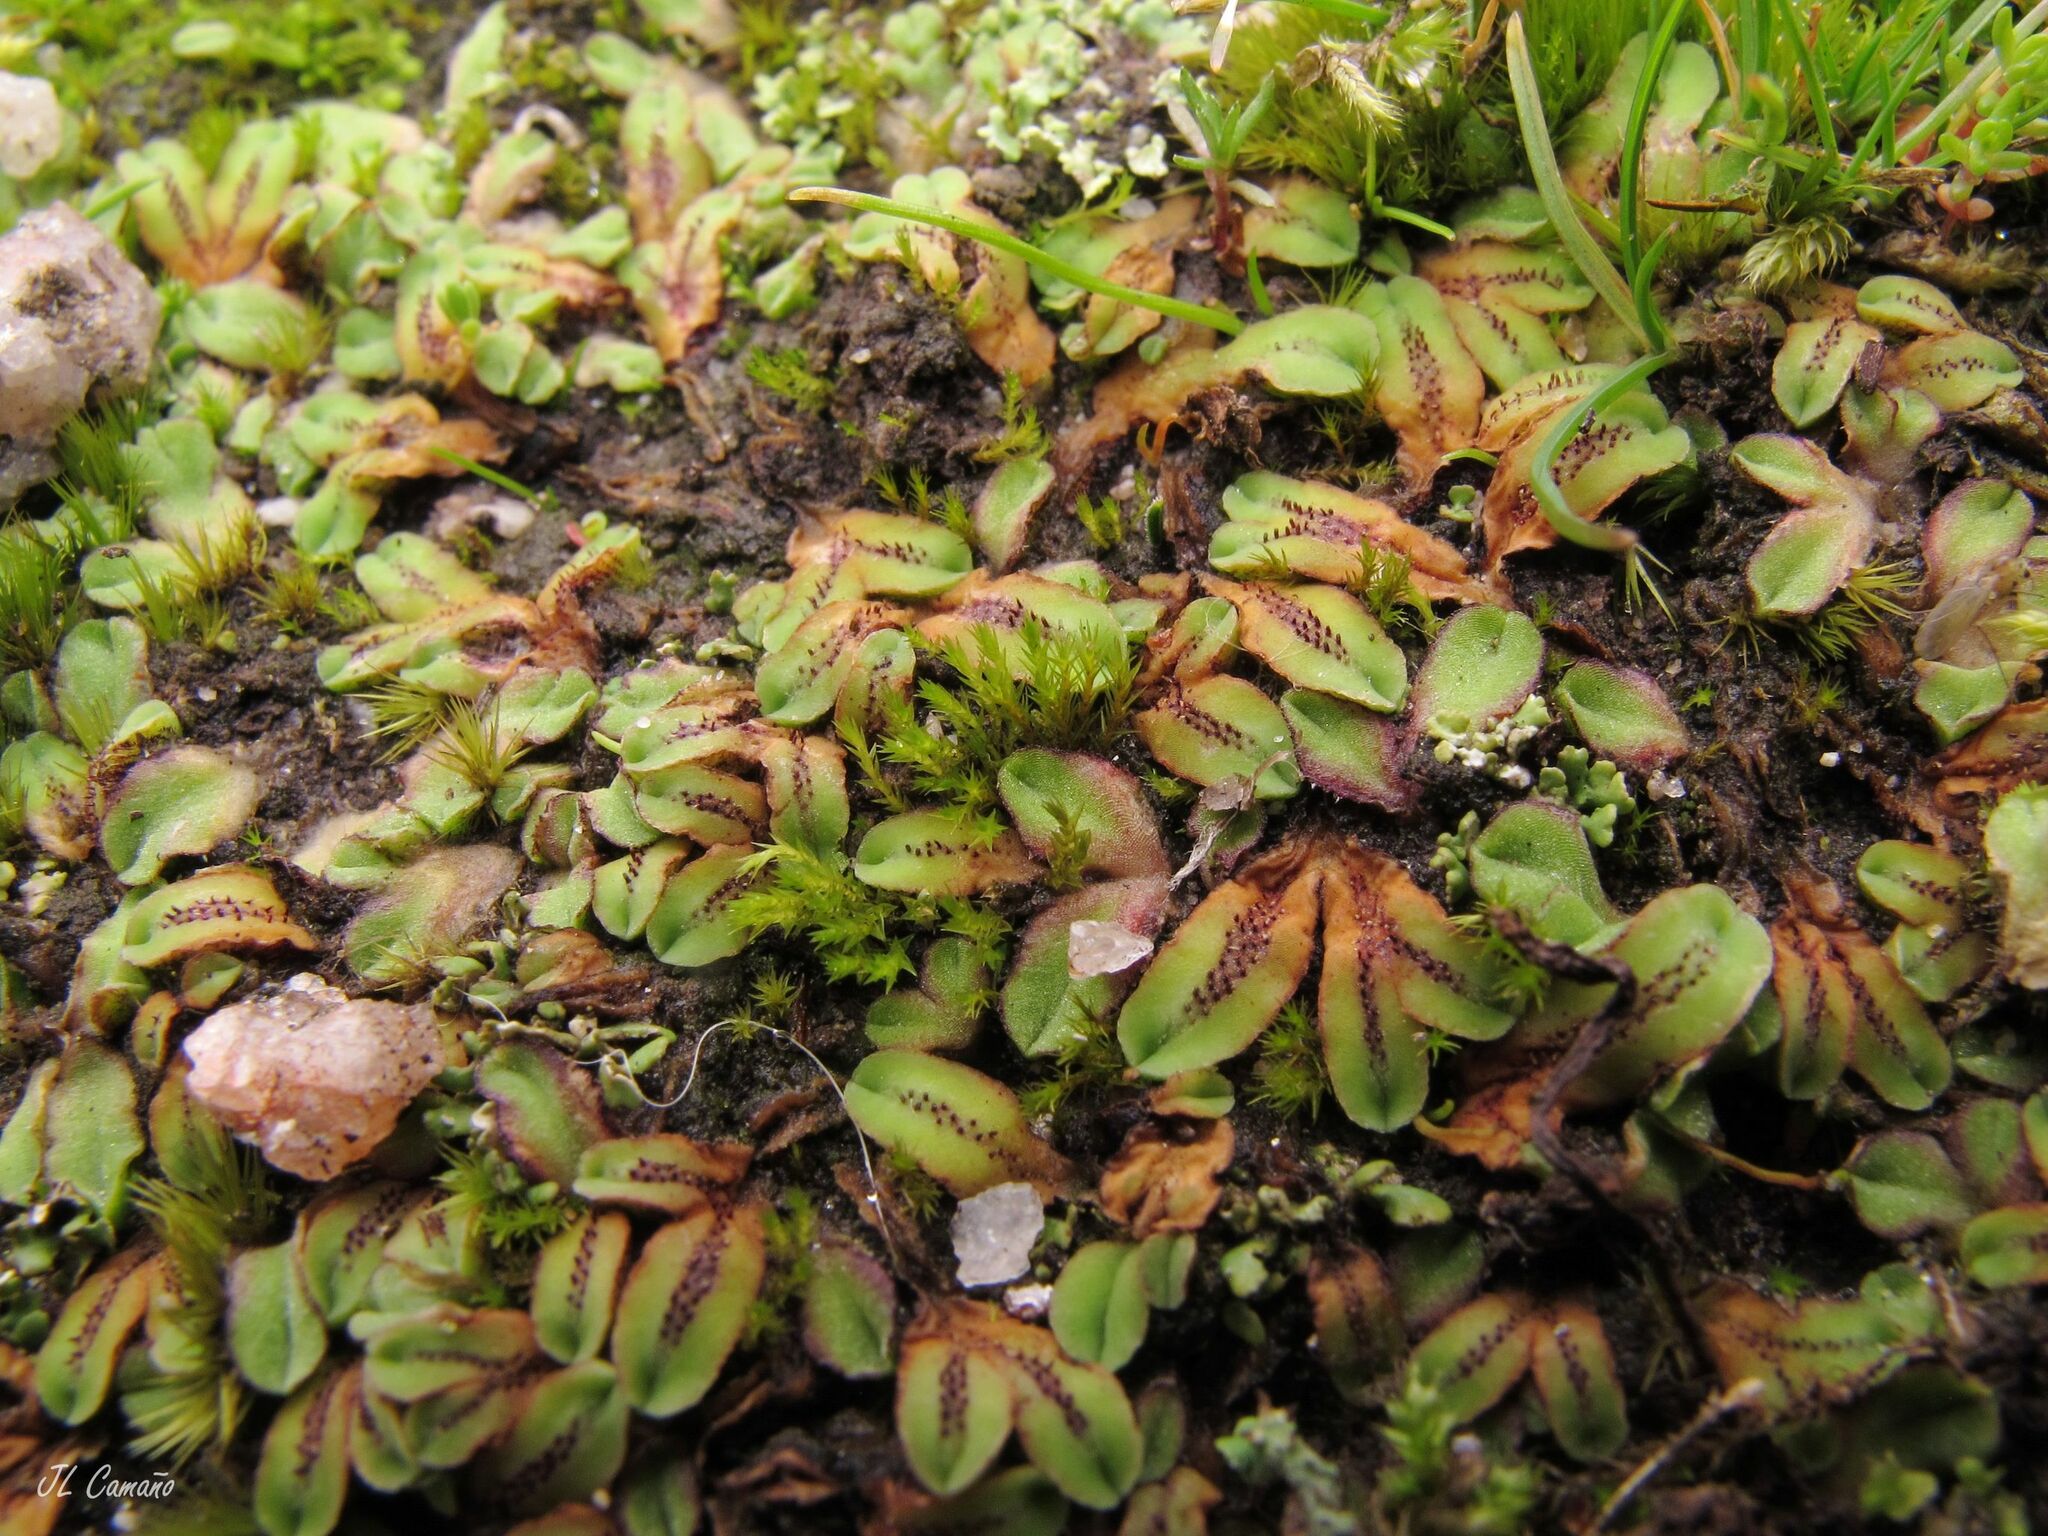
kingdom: Plantae
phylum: Marchantiophyta
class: Marchantiopsida
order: Marchantiales
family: Ricciaceae
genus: Riccia
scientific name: Riccia gougetiana
